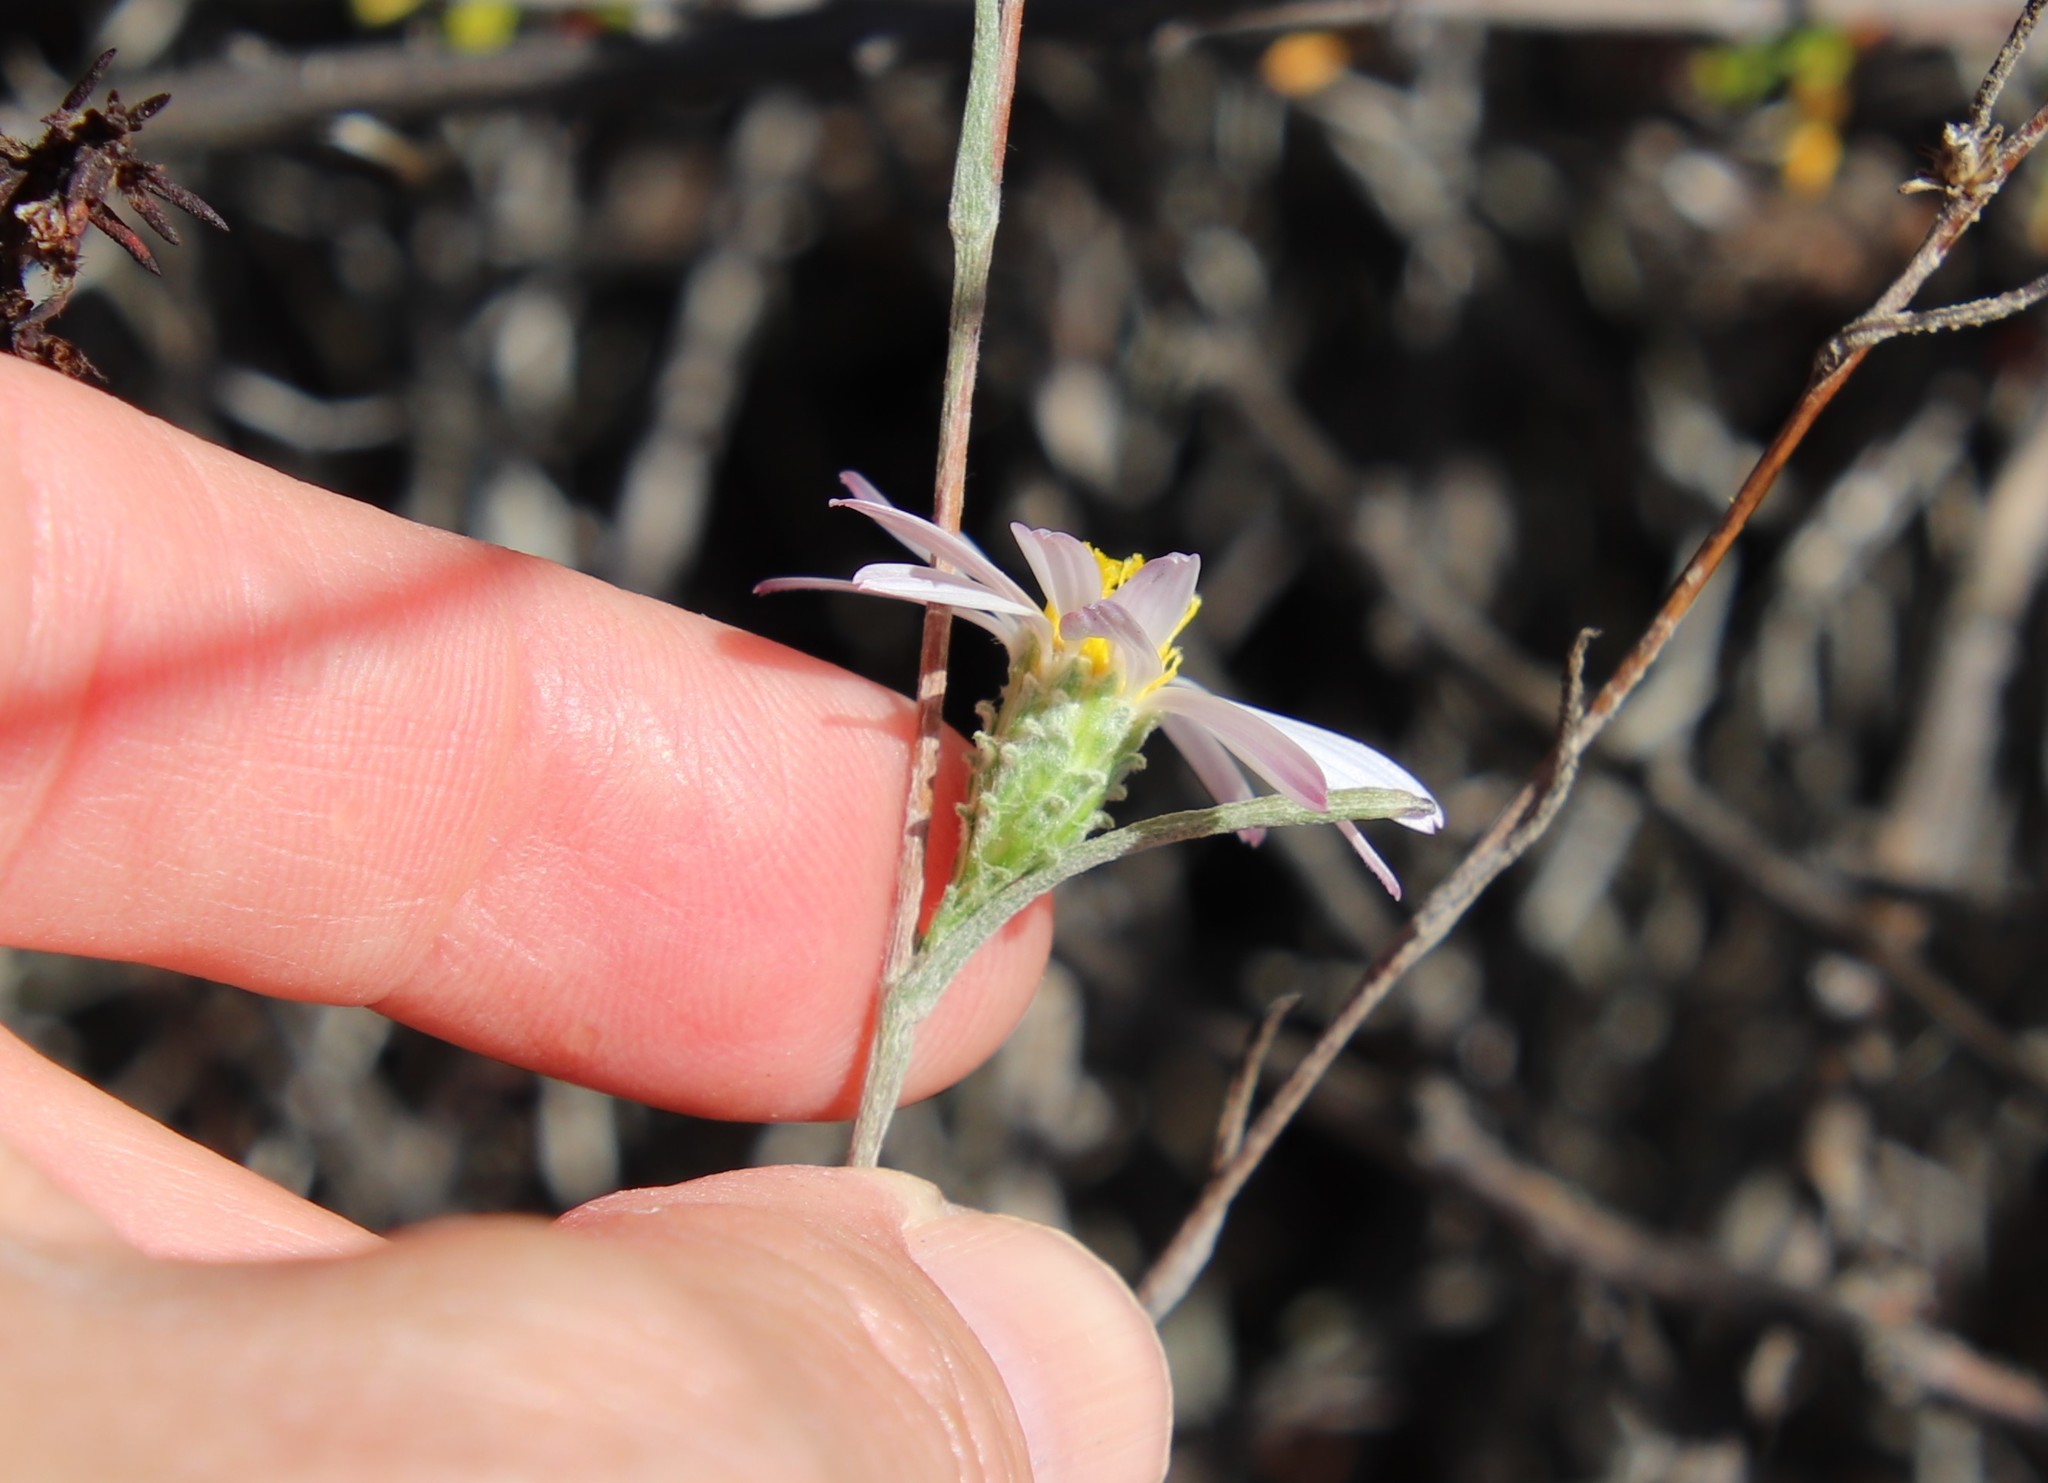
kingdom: Plantae
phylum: Tracheophyta
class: Magnoliopsida
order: Asterales
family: Asteraceae
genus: Corethrogyne
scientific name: Corethrogyne filaginifolia
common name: Sand-aster
